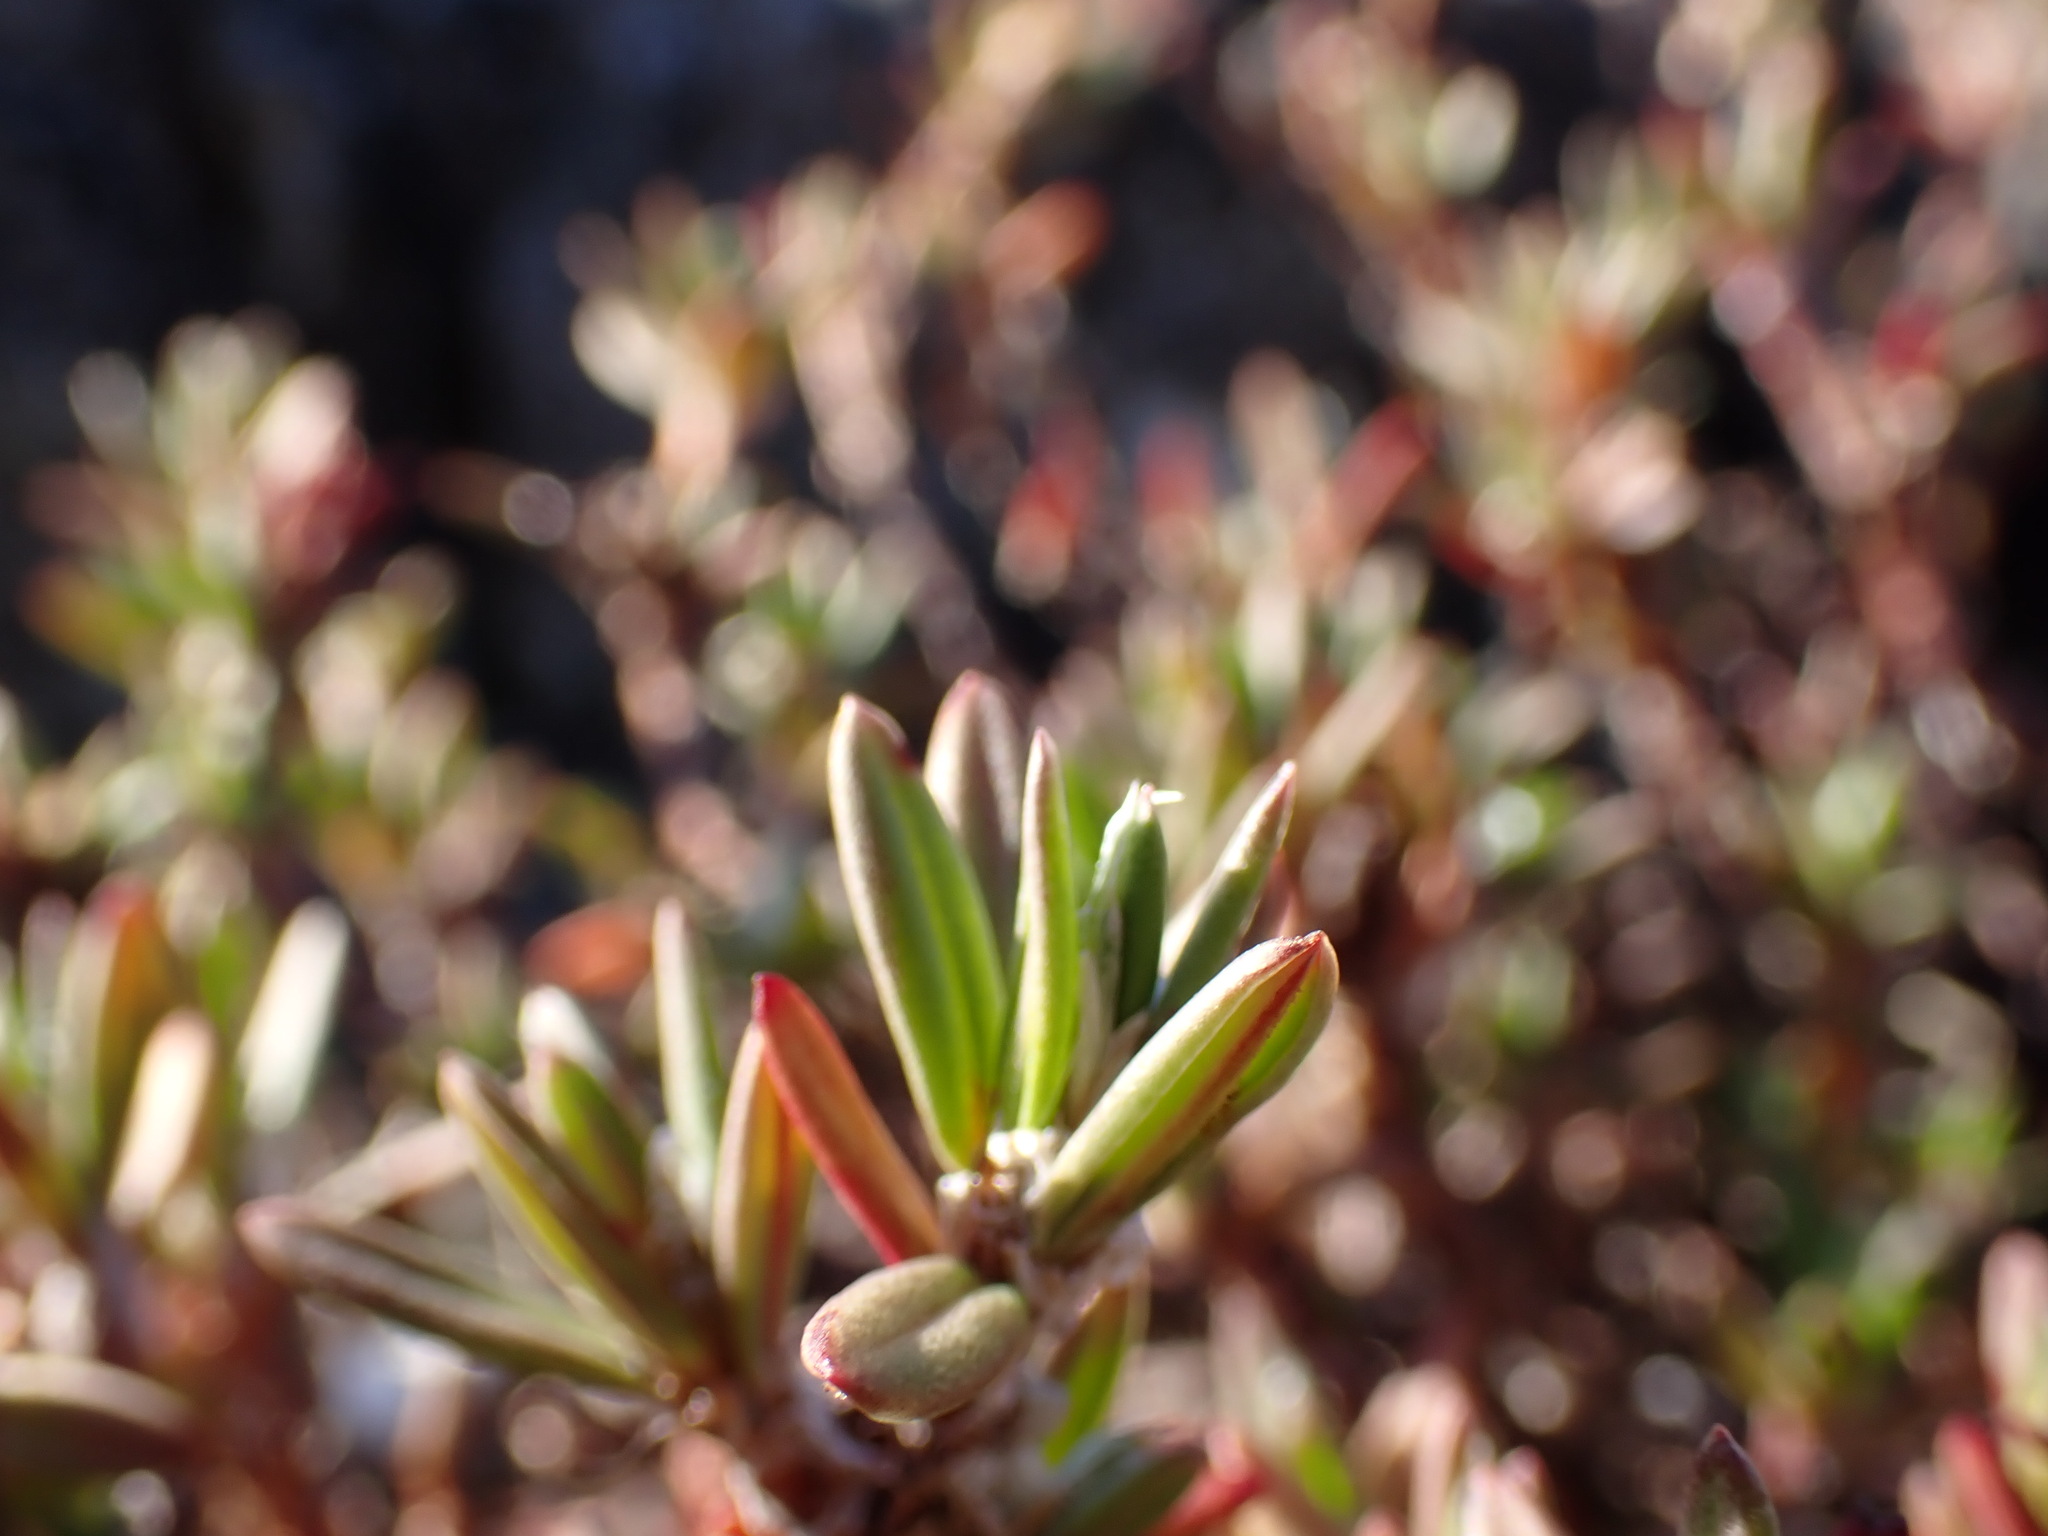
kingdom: Plantae
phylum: Tracheophyta
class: Magnoliopsida
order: Caryophyllales
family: Polygonaceae
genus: Polygonum
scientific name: Polygonum paronychia
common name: Dune knotweed
